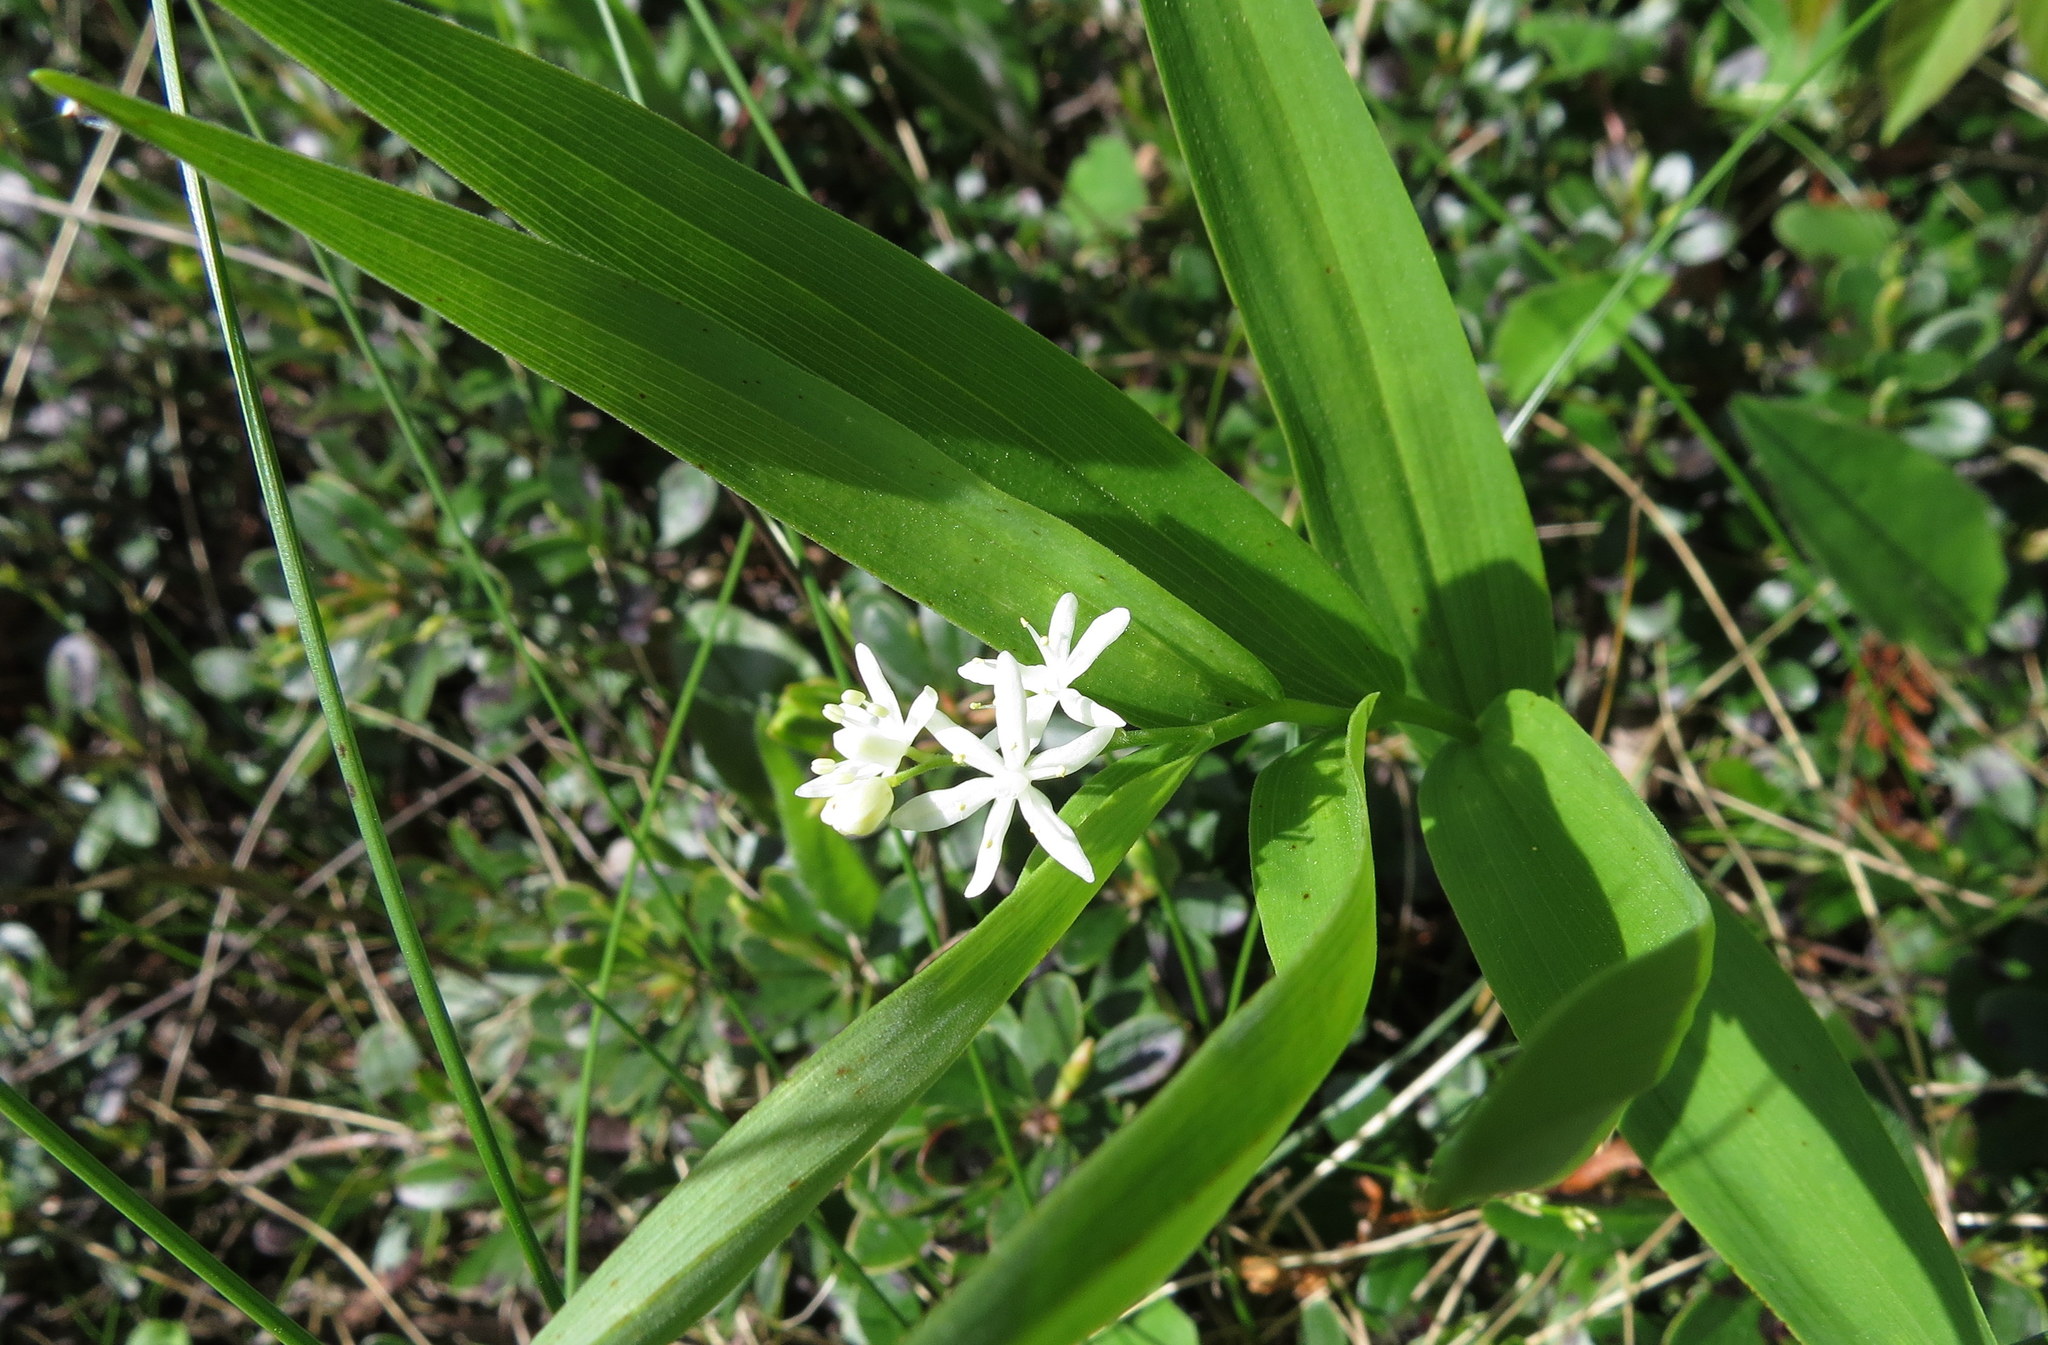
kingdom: Plantae
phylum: Tracheophyta
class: Liliopsida
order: Asparagales
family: Asparagaceae
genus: Maianthemum
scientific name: Maianthemum stellatum
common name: Little false solomon's seal
